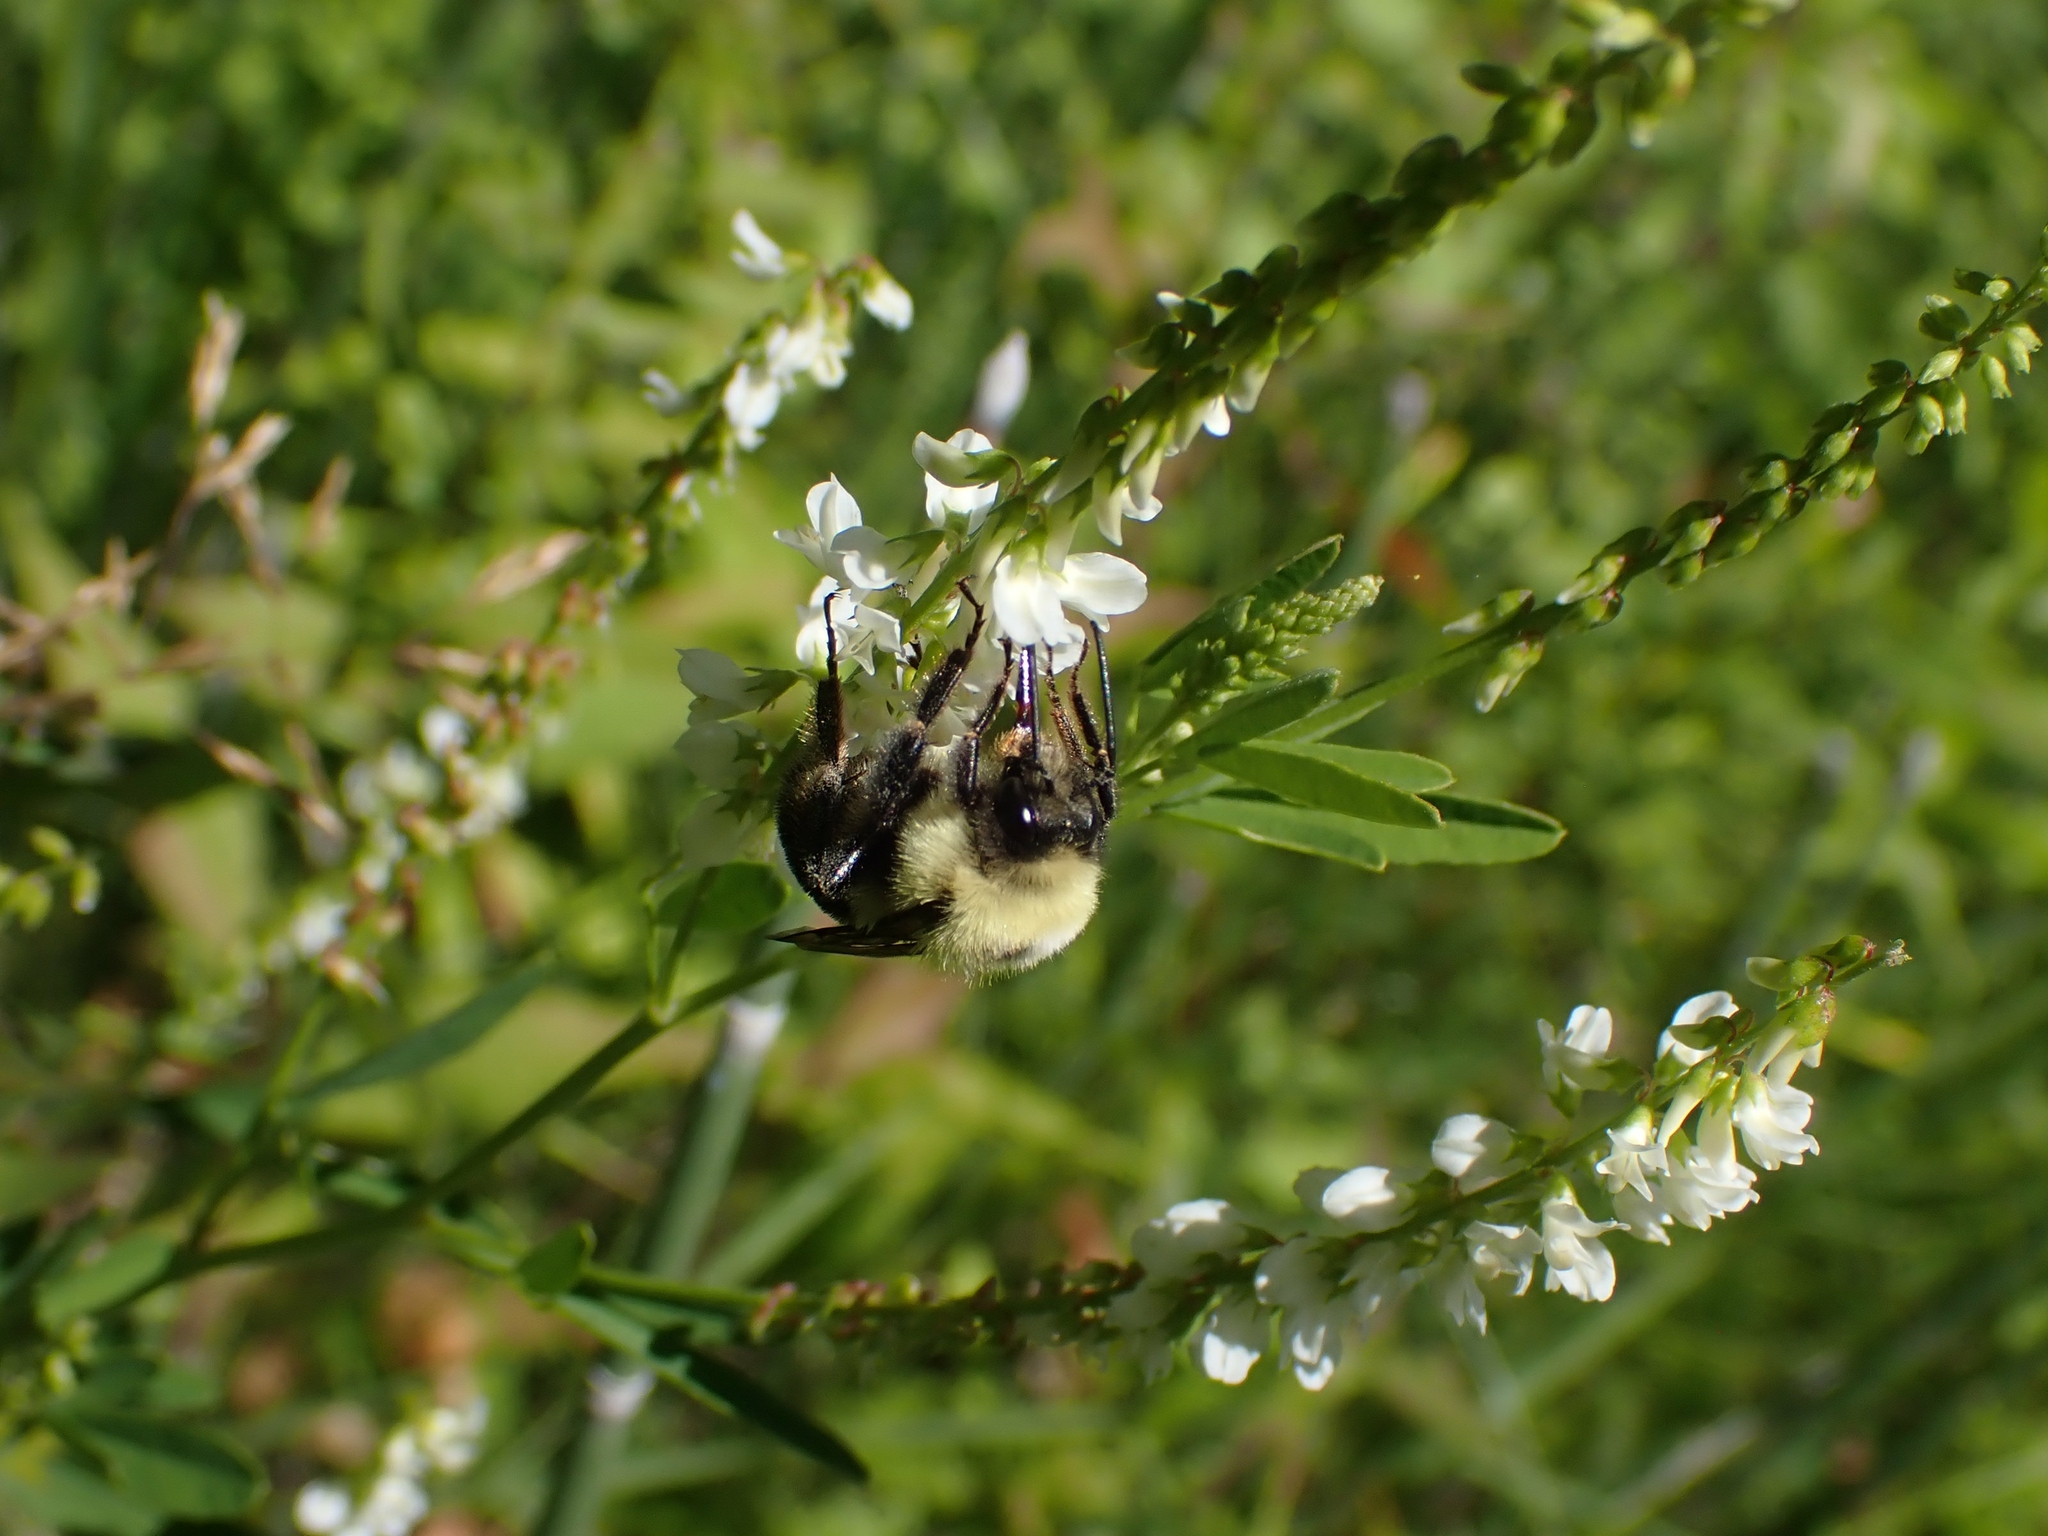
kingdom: Plantae
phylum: Tracheophyta
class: Magnoliopsida
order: Fabales
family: Fabaceae
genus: Melilotus
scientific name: Melilotus albus
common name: White melilot
